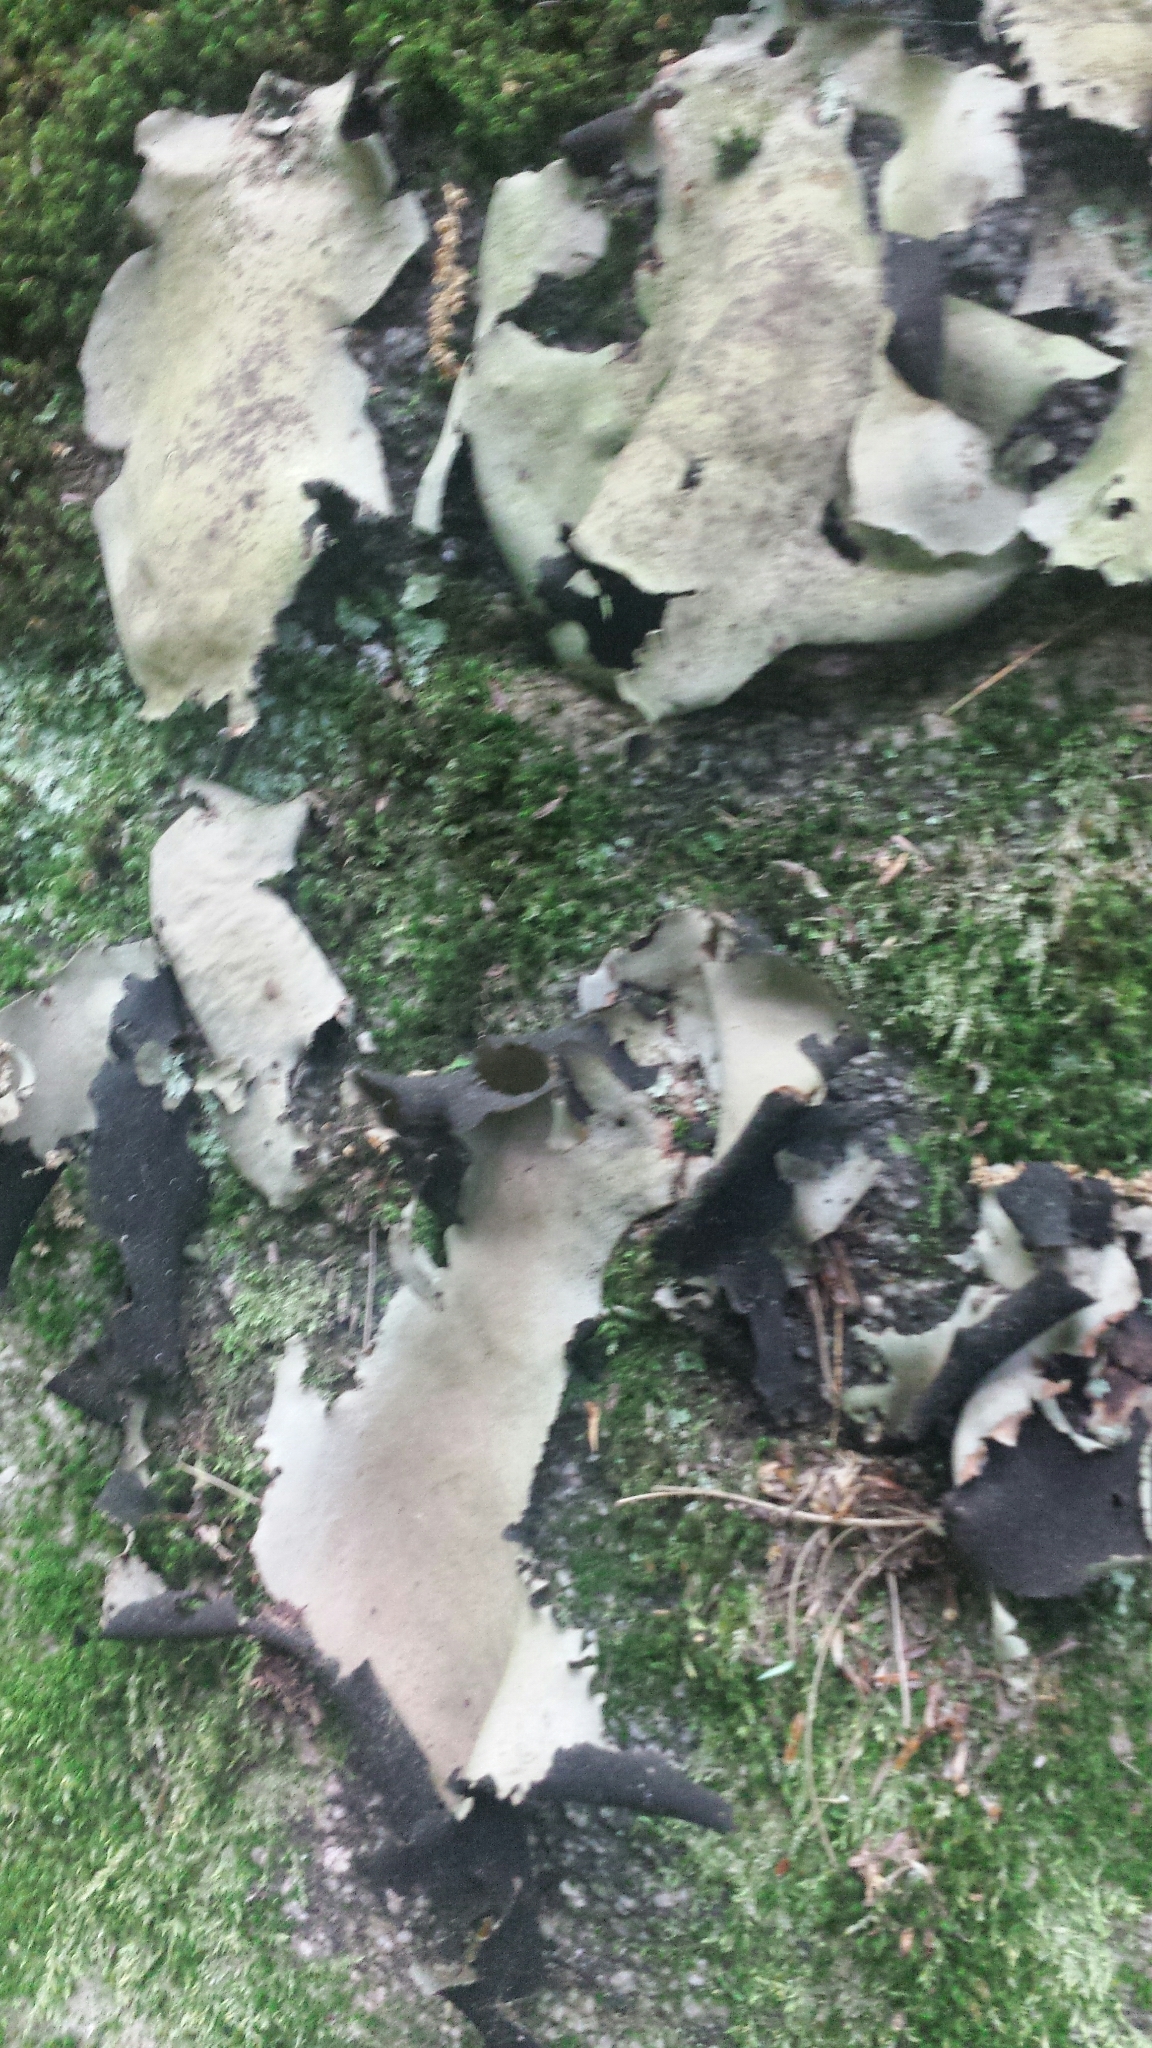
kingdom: Fungi
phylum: Ascomycota
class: Lecanoromycetes
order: Umbilicariales
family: Umbilicariaceae
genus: Umbilicaria
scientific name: Umbilicaria mammulata
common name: Smooth rock tripe
